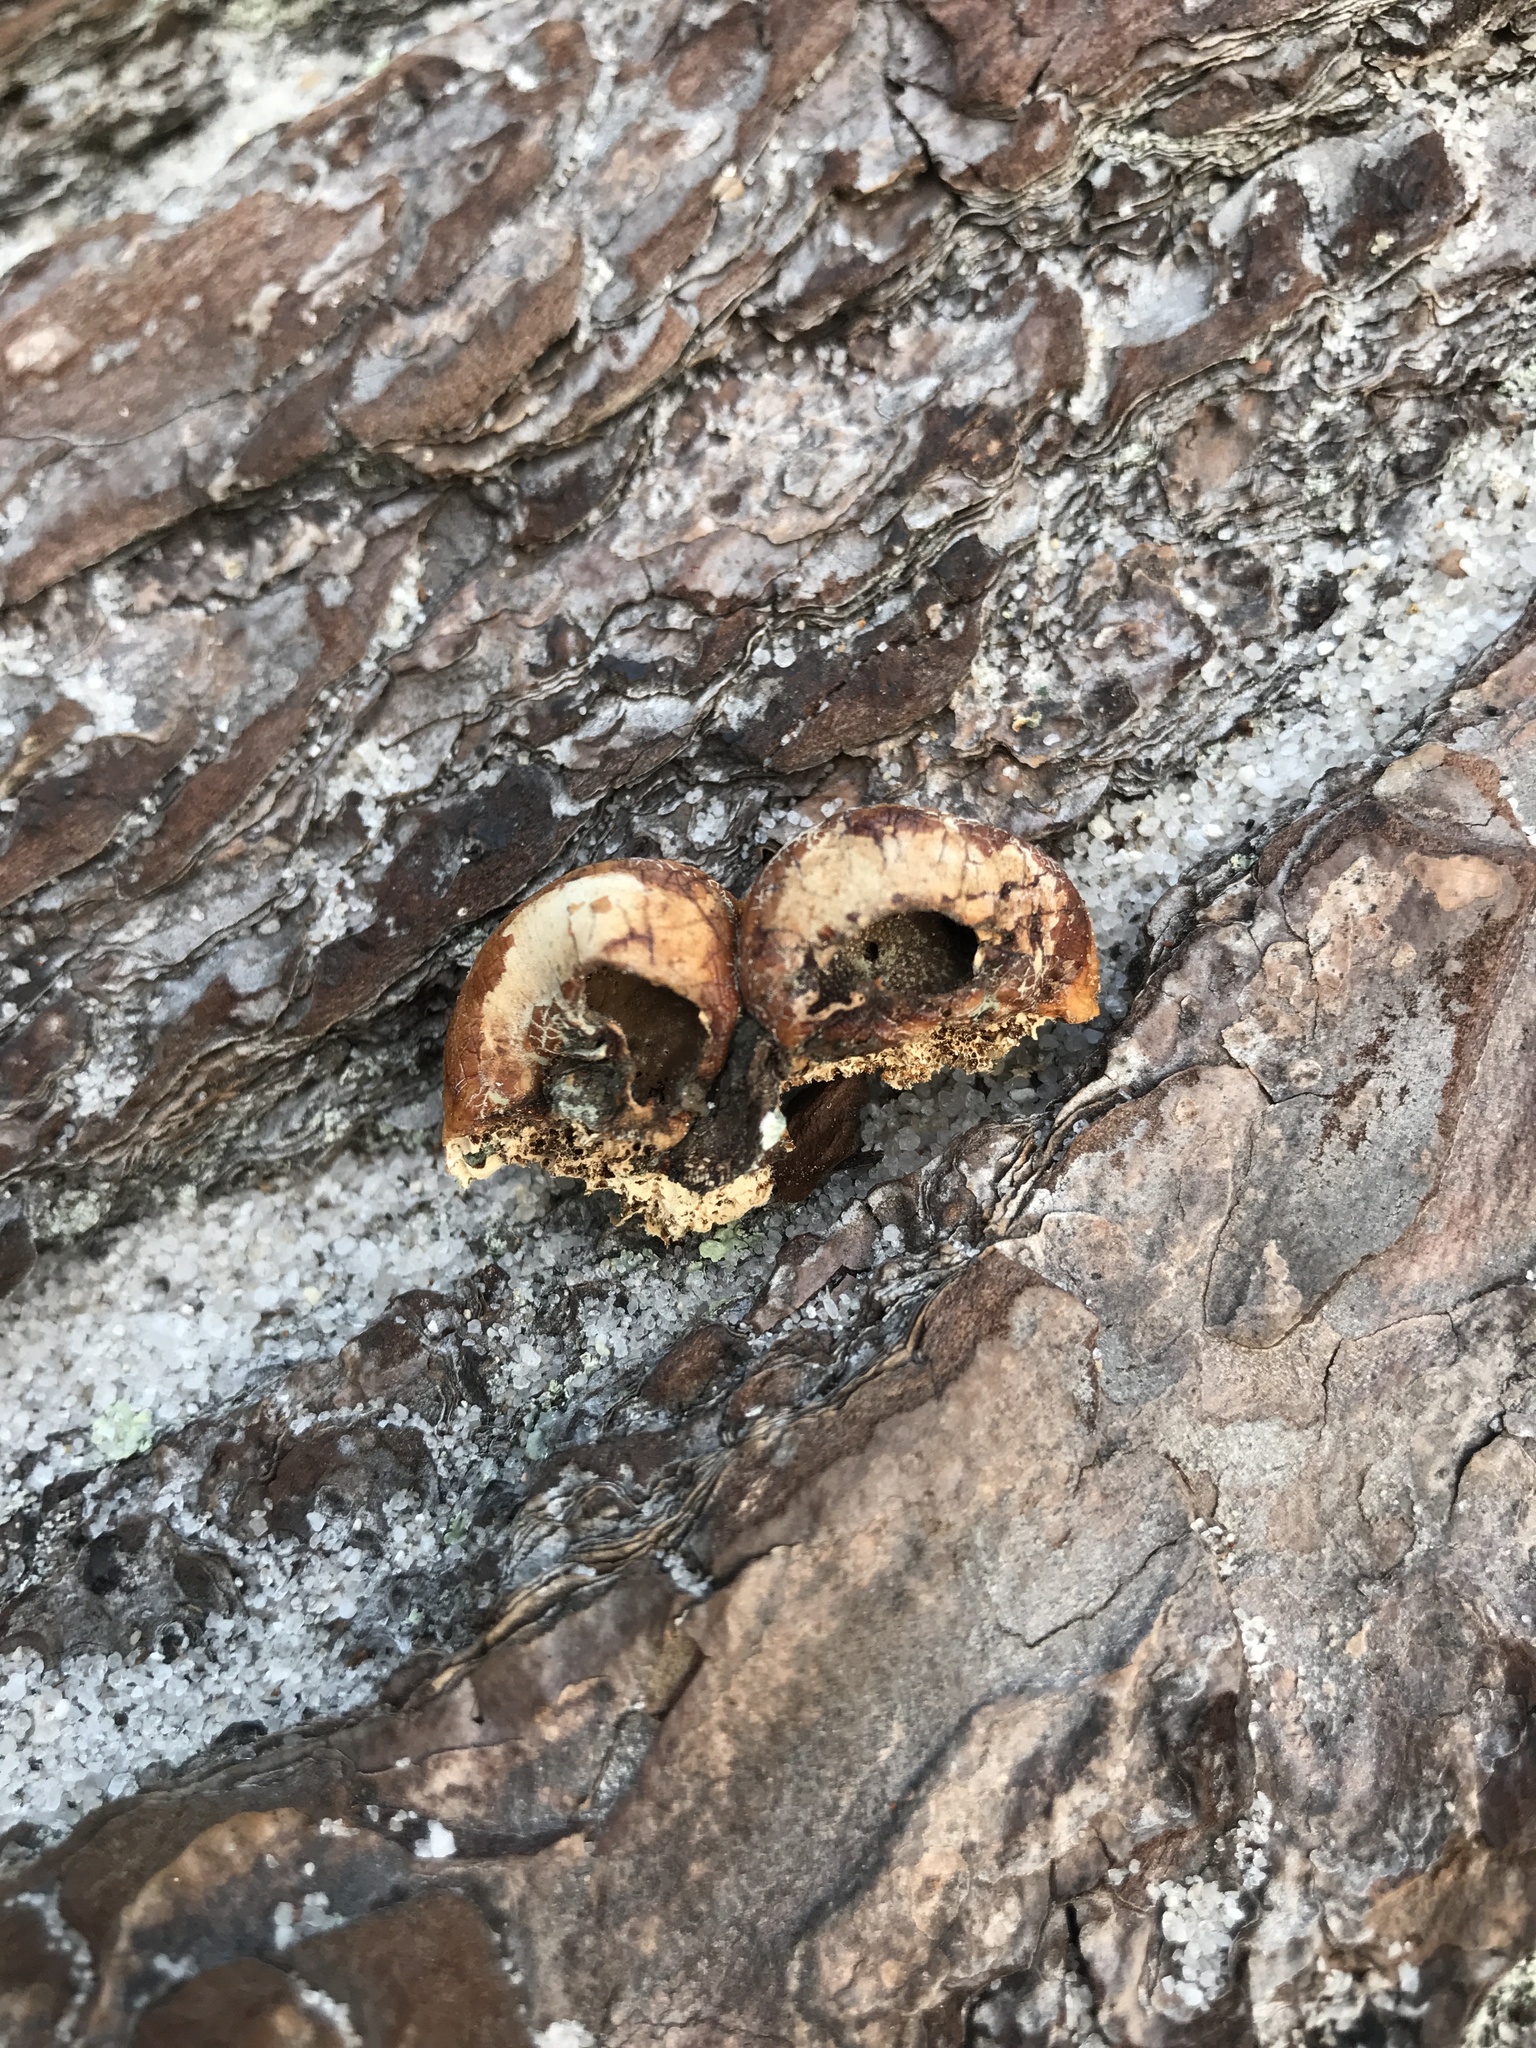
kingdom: Fungi
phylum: Basidiomycota
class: Agaricomycetes
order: Polyporales
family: Polyporaceae
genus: Cryptoporus
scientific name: Cryptoporus volvatus
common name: Veiled polypore
